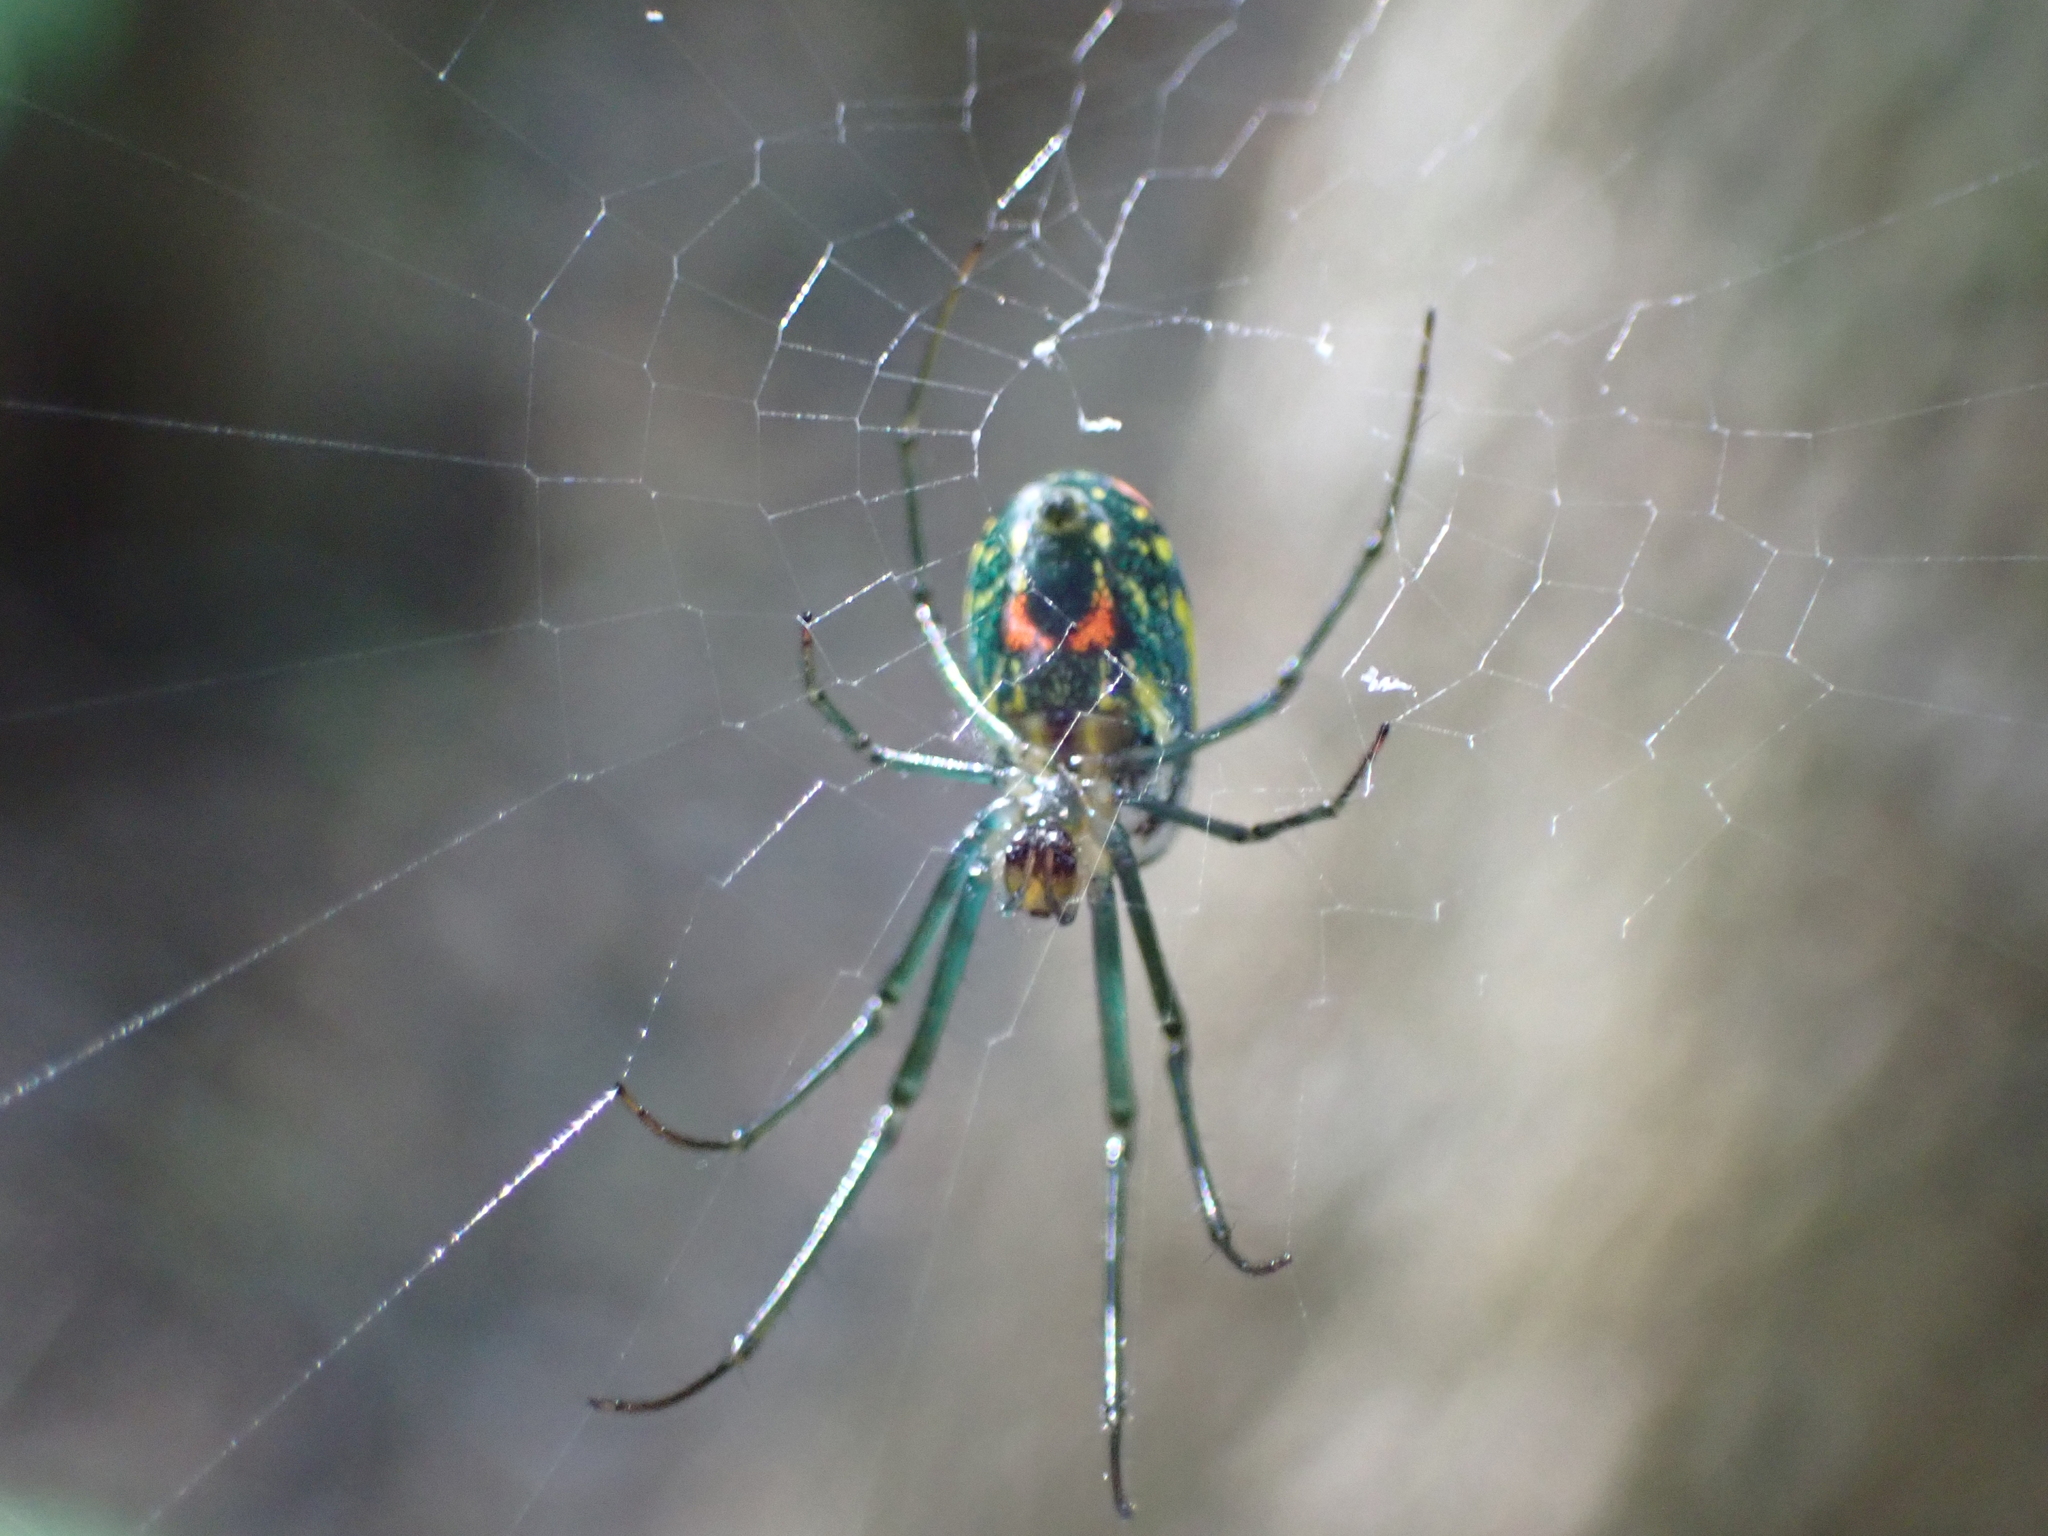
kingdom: Animalia
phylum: Arthropoda
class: Arachnida
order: Araneae
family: Tetragnathidae
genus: Leucauge
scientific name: Leucauge argyrobapta
